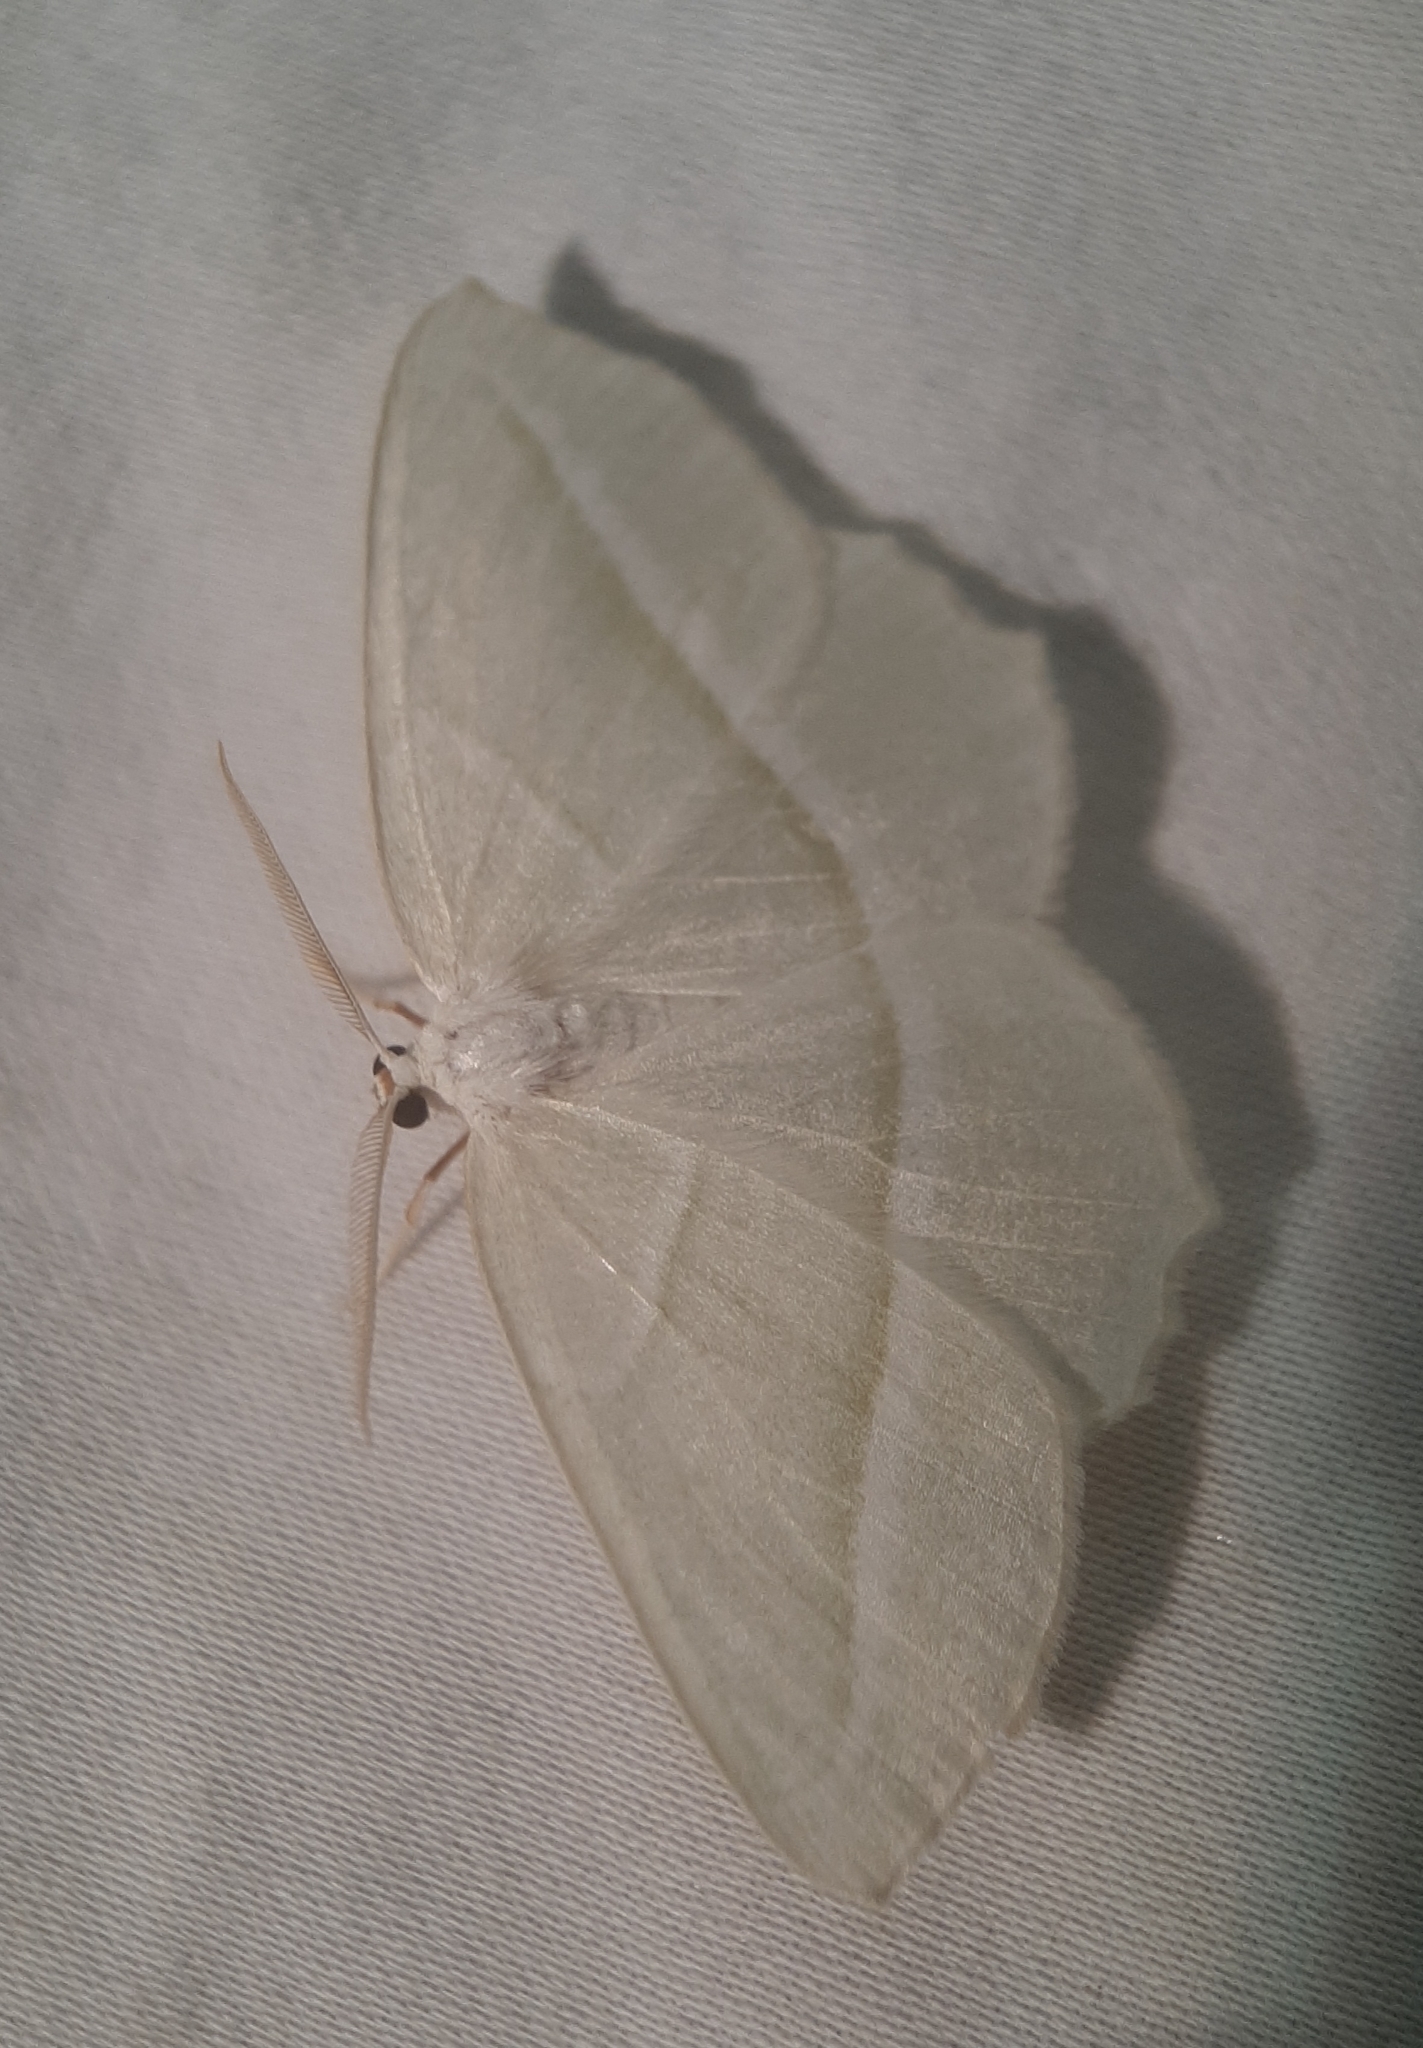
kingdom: Animalia
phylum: Arthropoda
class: Insecta
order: Lepidoptera
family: Geometridae
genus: Campaea
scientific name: Campaea perlata
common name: Fringed looper
